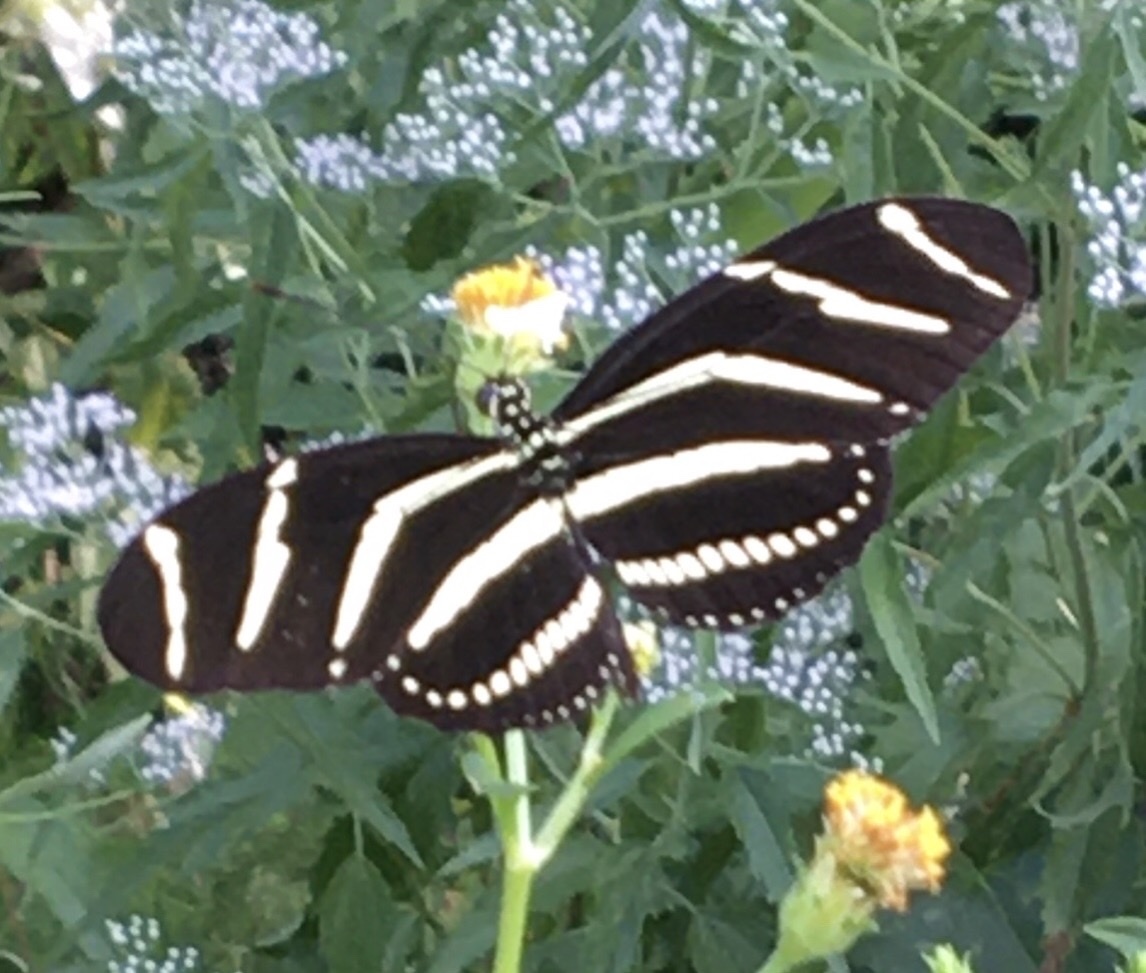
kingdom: Animalia
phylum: Arthropoda
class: Insecta
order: Lepidoptera
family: Nymphalidae
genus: Heliconius
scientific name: Heliconius charithonia
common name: Zebra long wing
